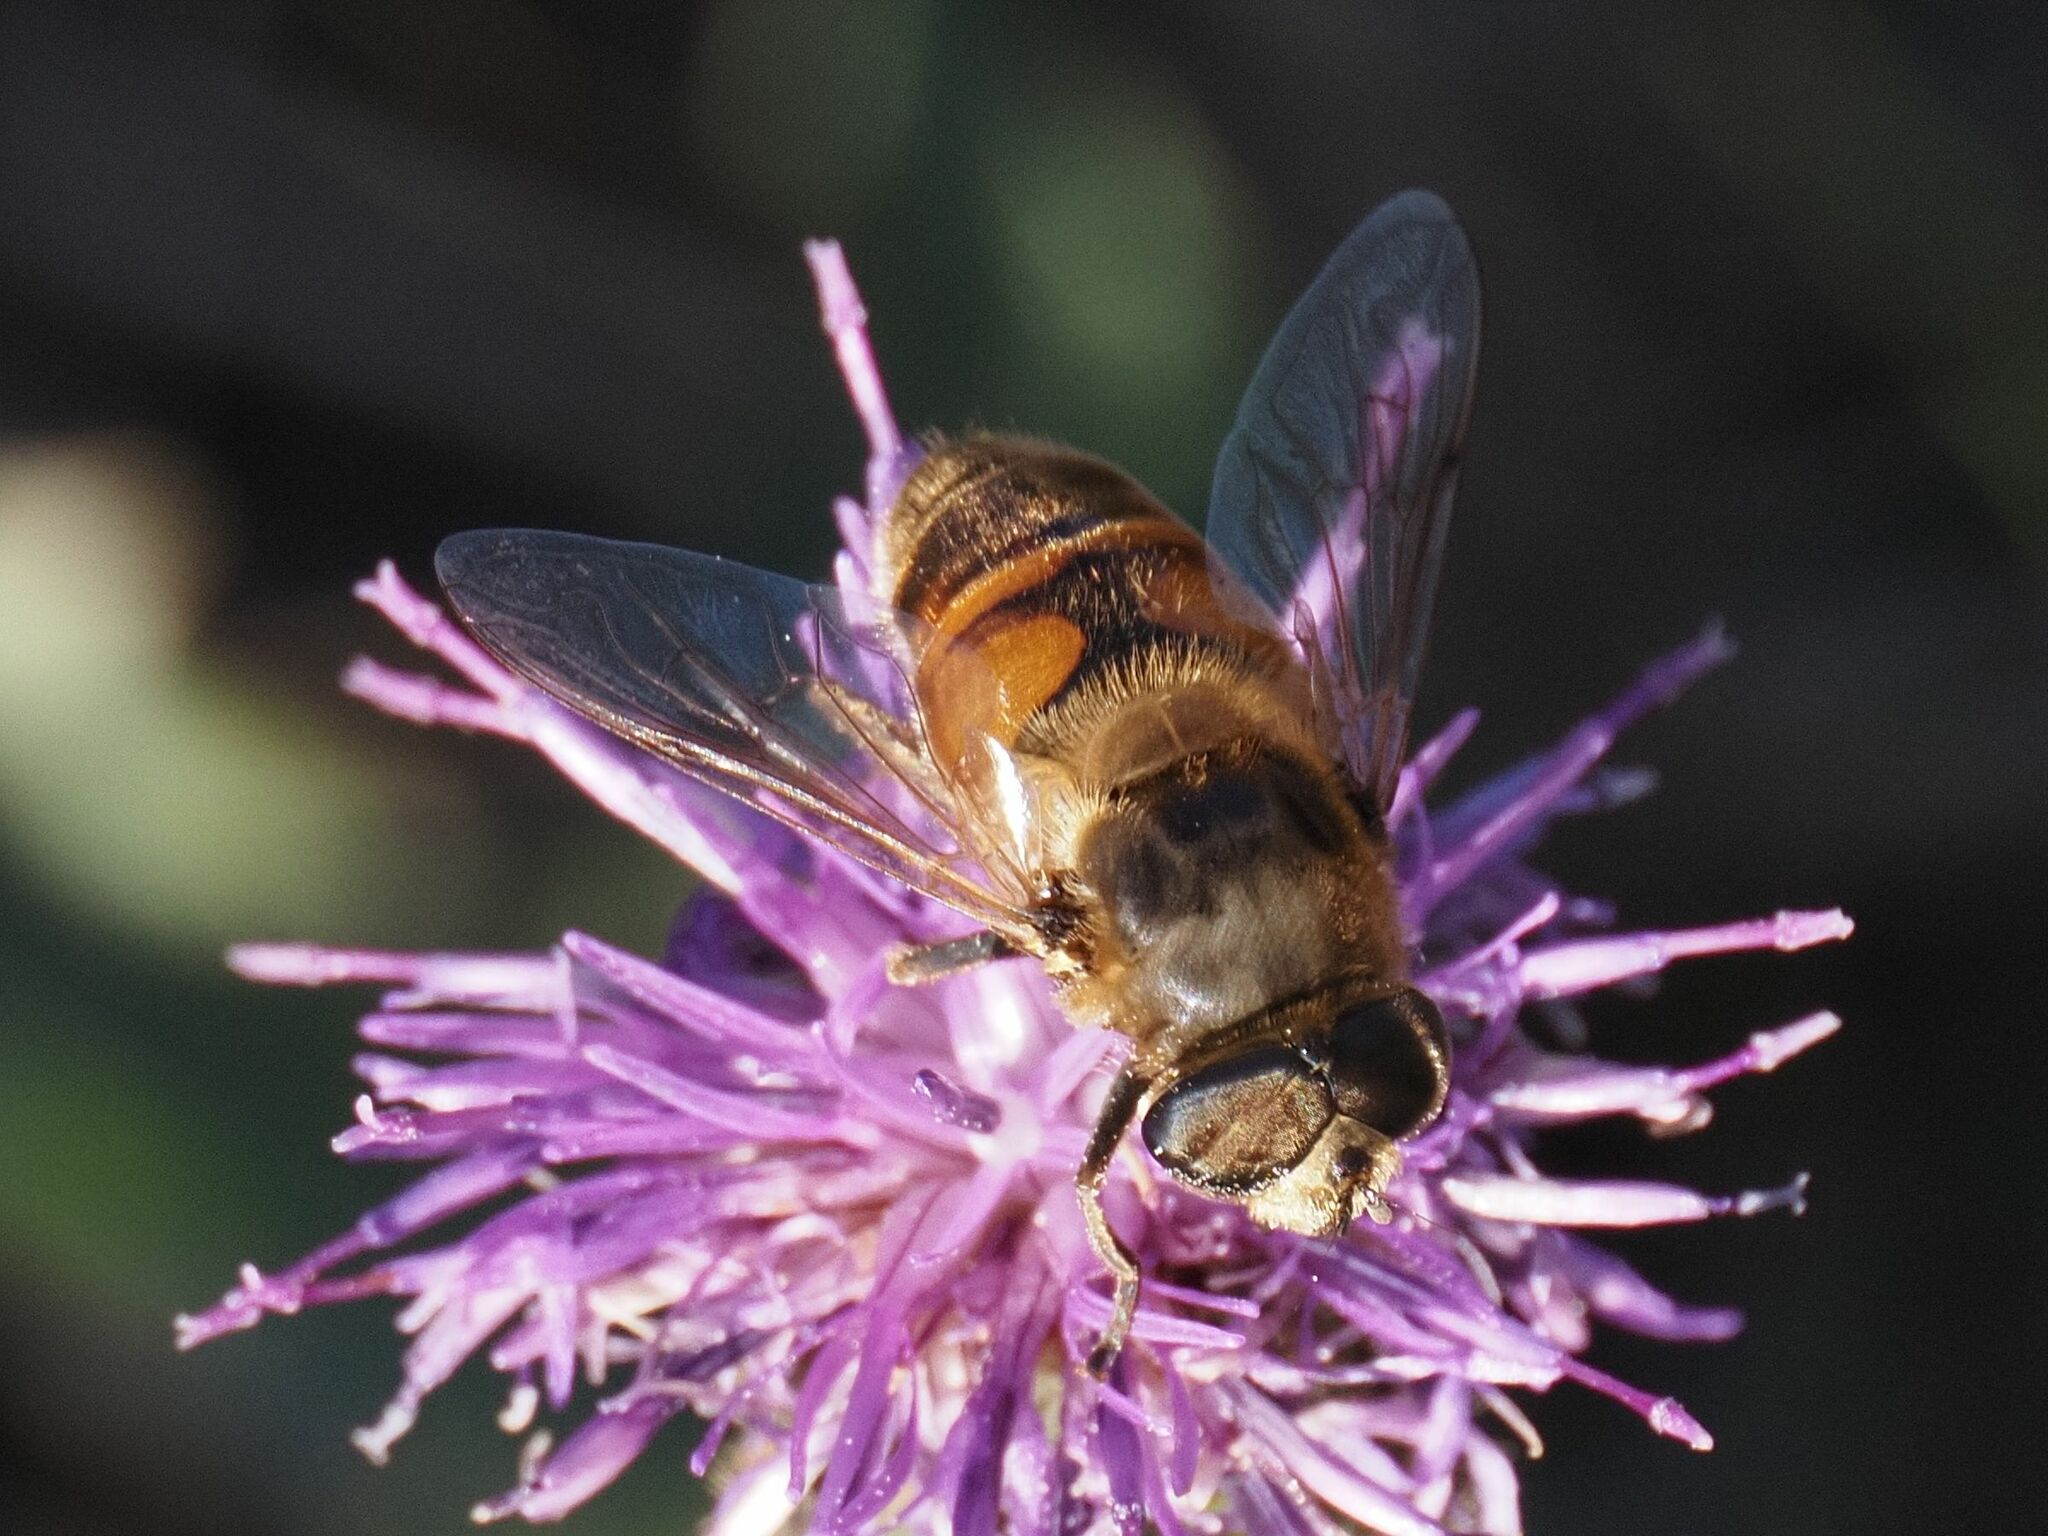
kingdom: Animalia
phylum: Arthropoda
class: Insecta
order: Diptera
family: Syrphidae
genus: Eristalis
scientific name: Eristalis tenax
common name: Drone fly
